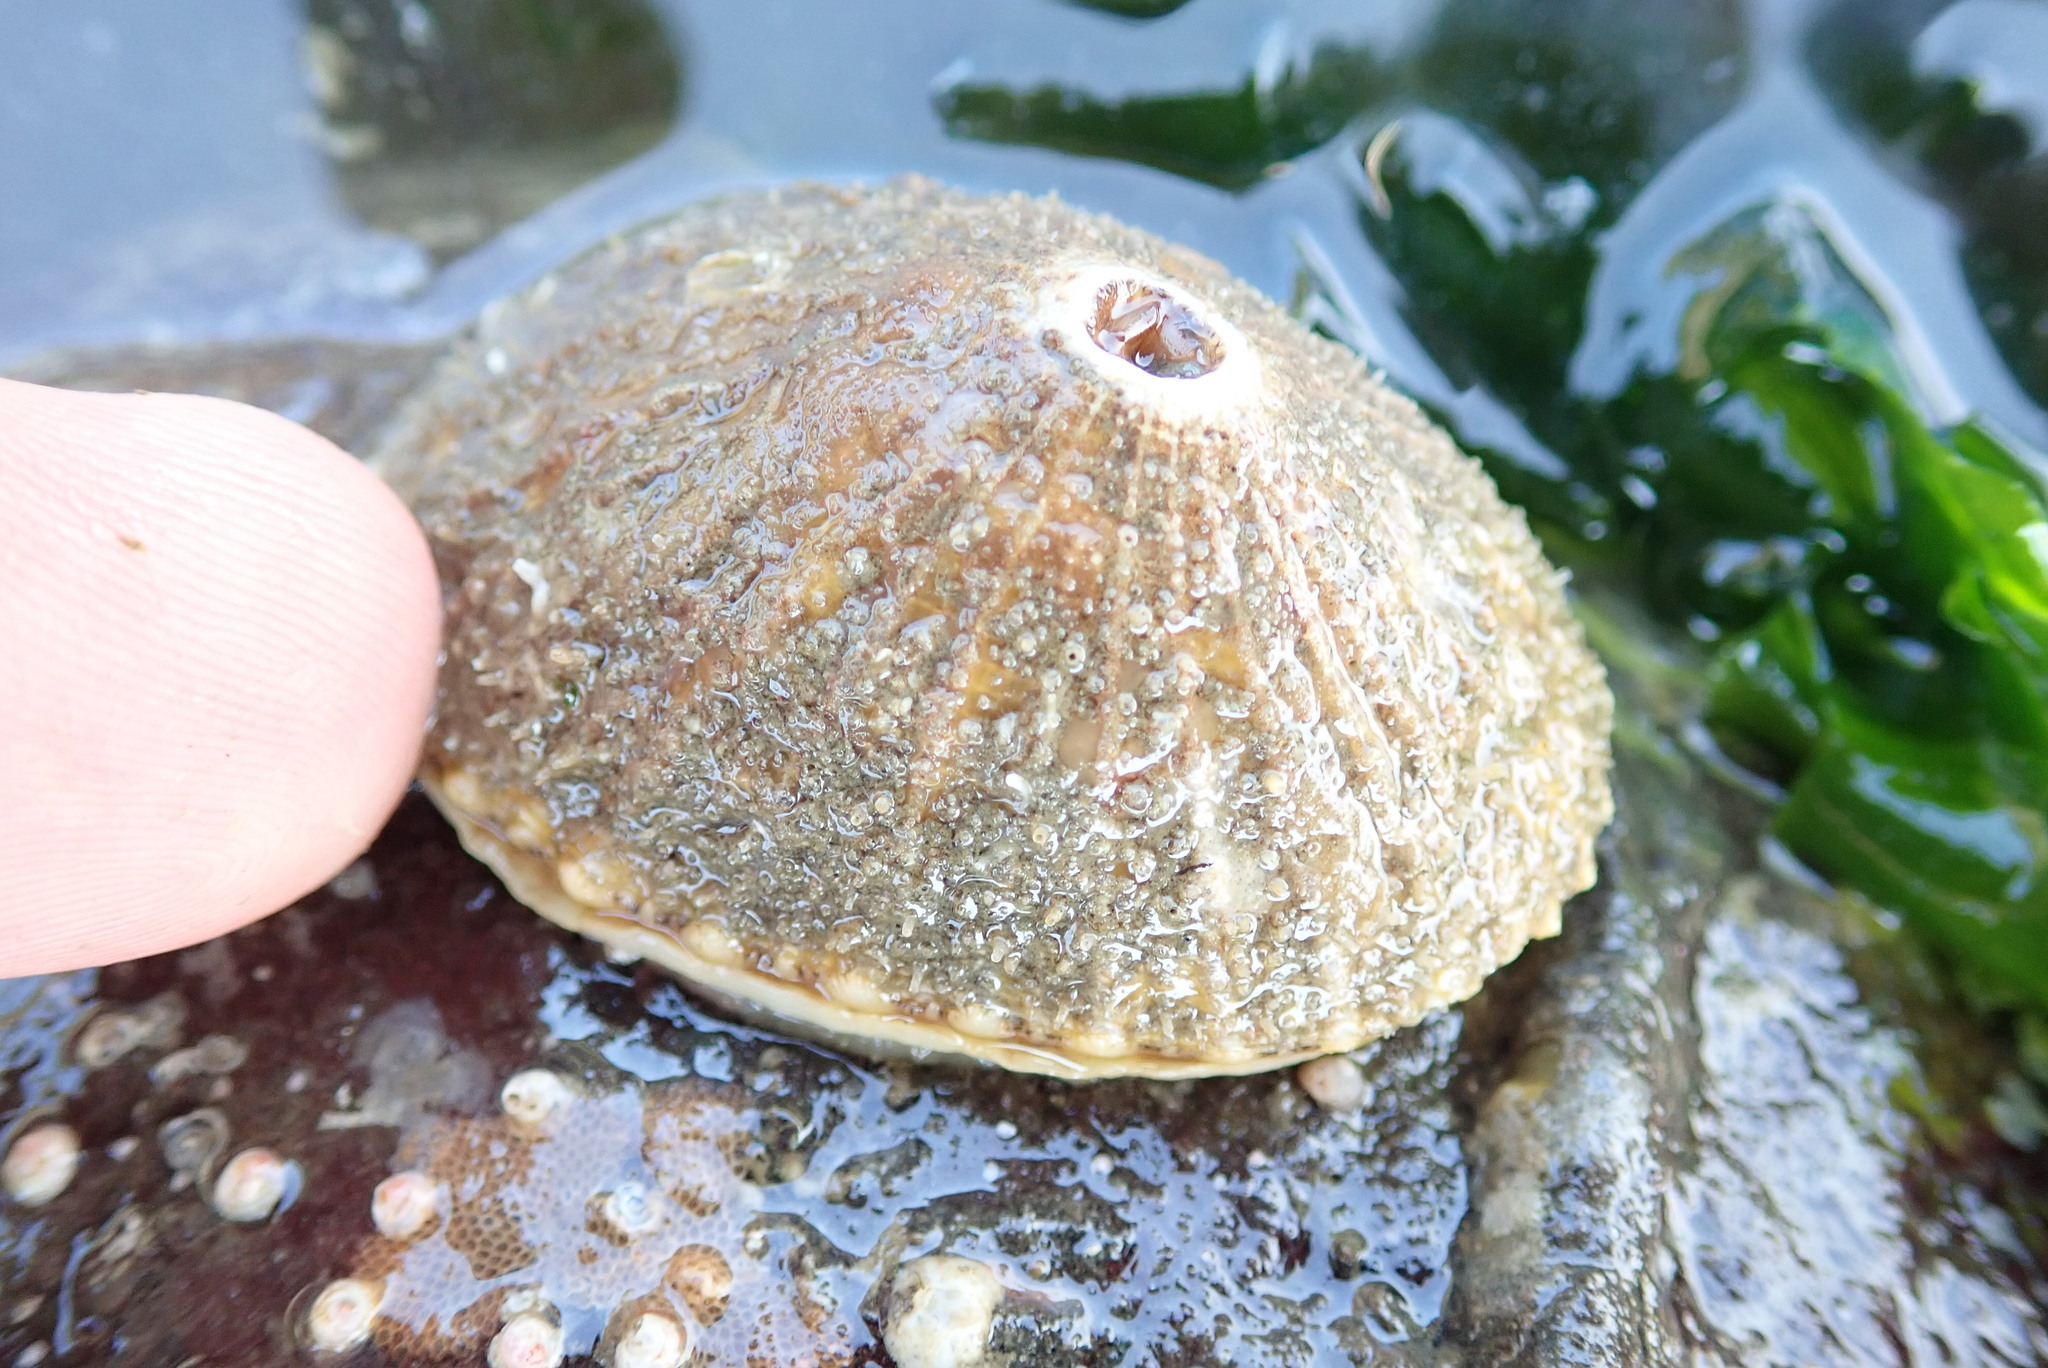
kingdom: Animalia
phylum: Mollusca
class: Gastropoda
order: Lepetellida
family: Fissurellidae
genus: Diodora
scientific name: Diodora aspera
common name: Rough keyhole limpet
